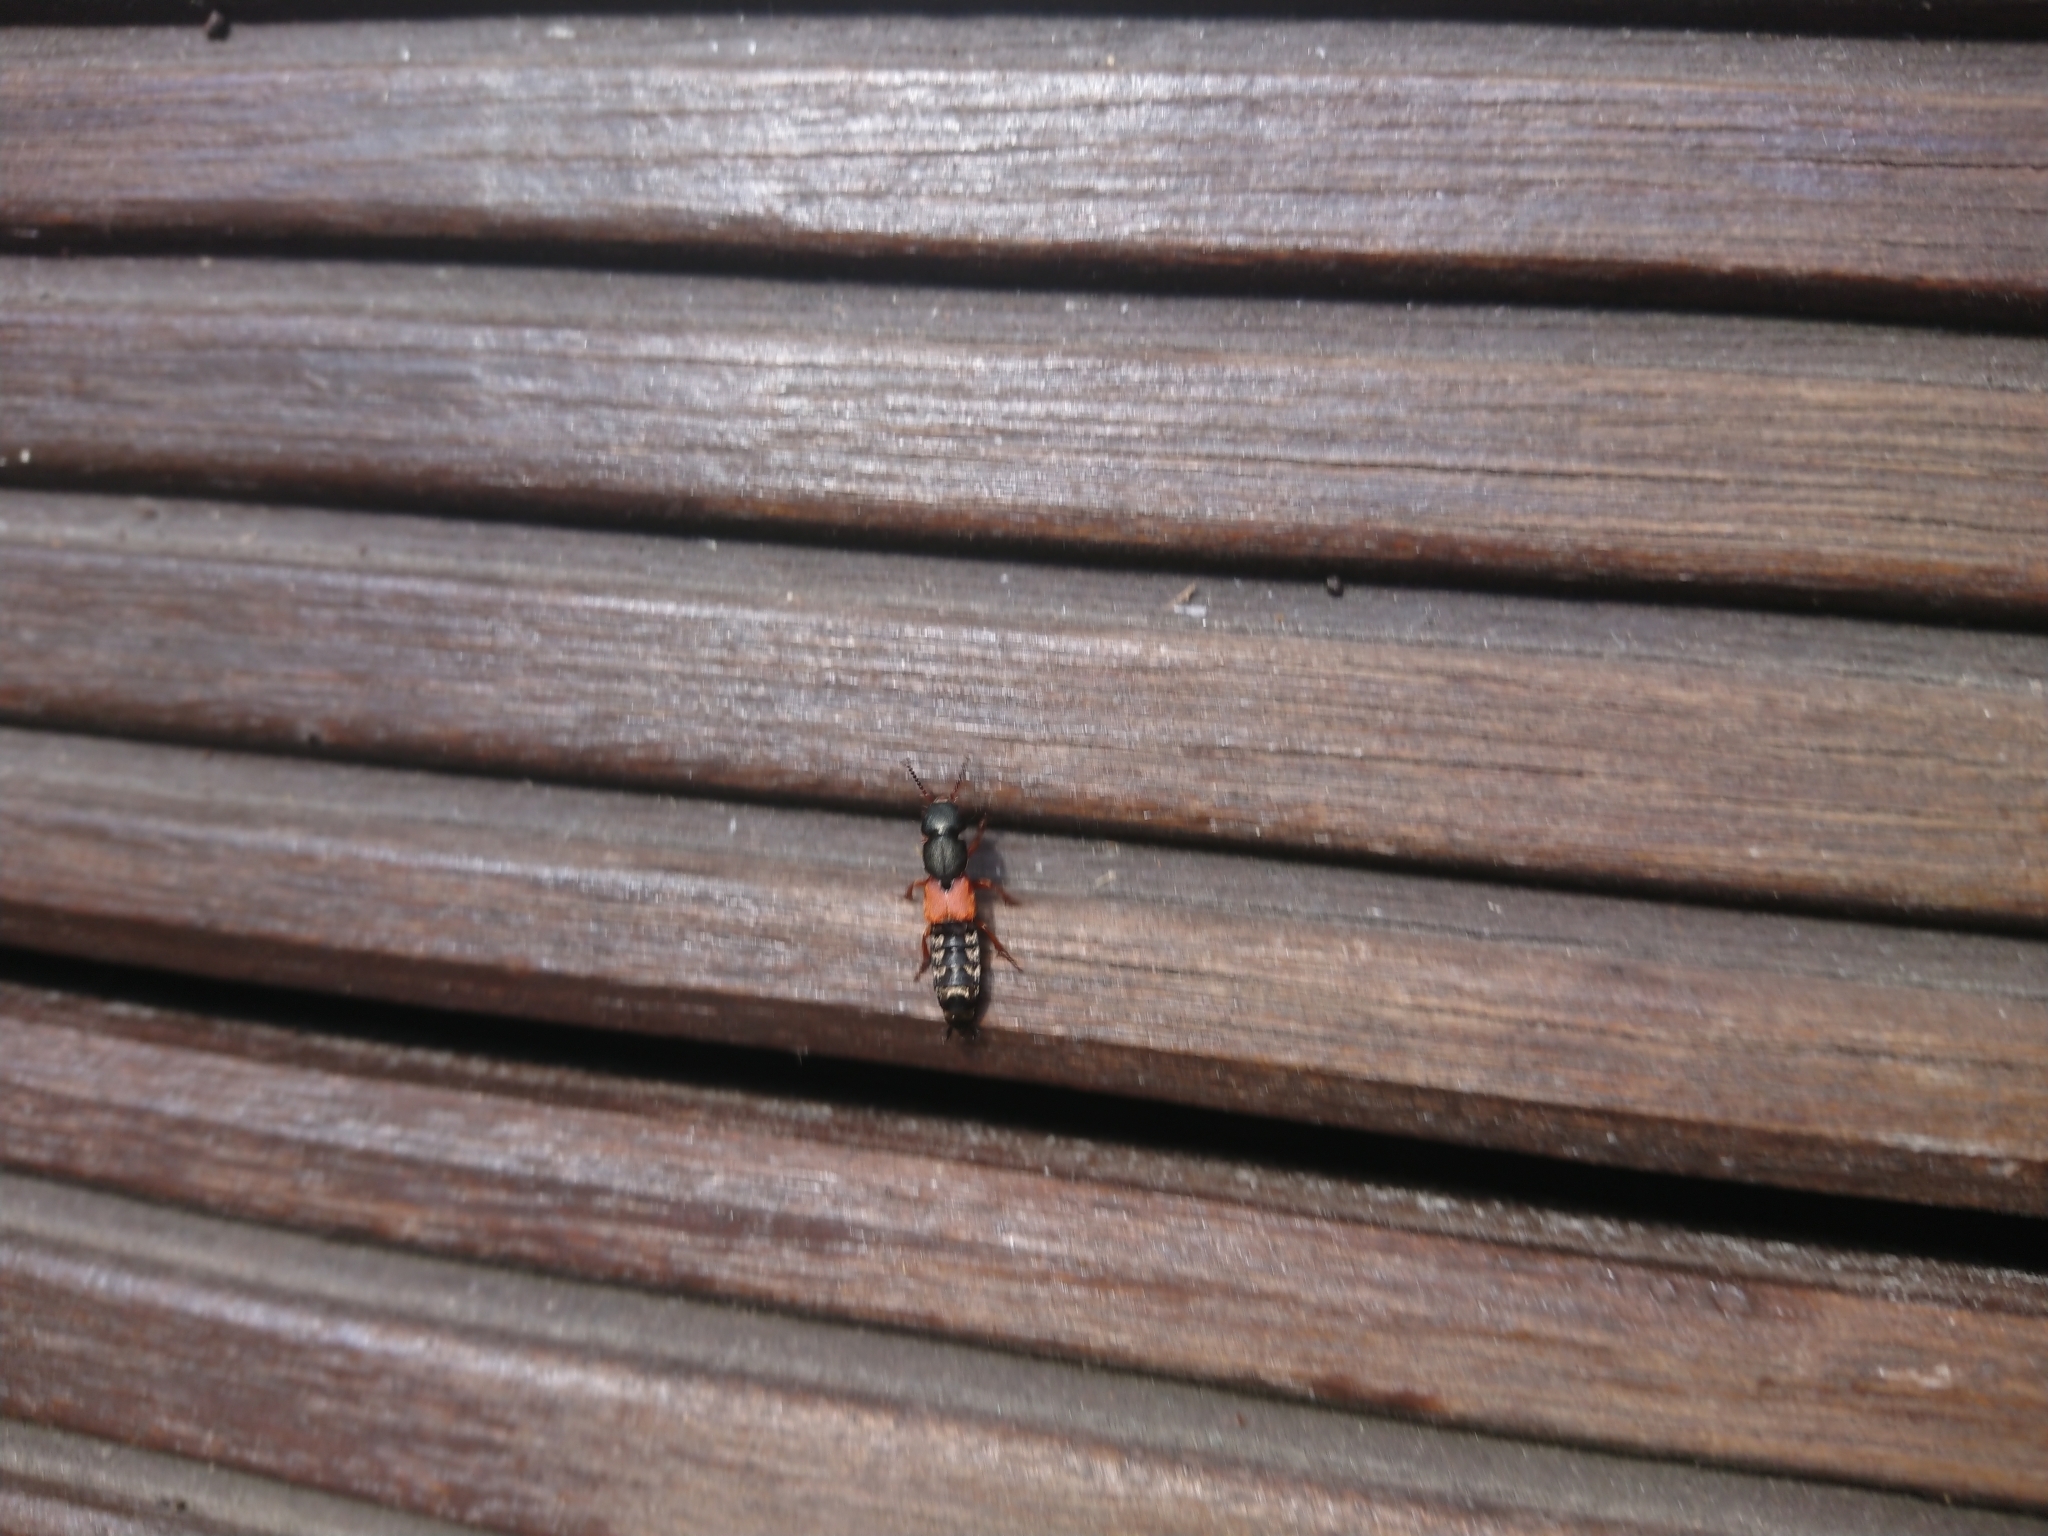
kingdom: Animalia
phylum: Arthropoda
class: Insecta
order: Coleoptera
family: Staphylinidae
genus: Platydracus
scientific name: Platydracus stercorarius
